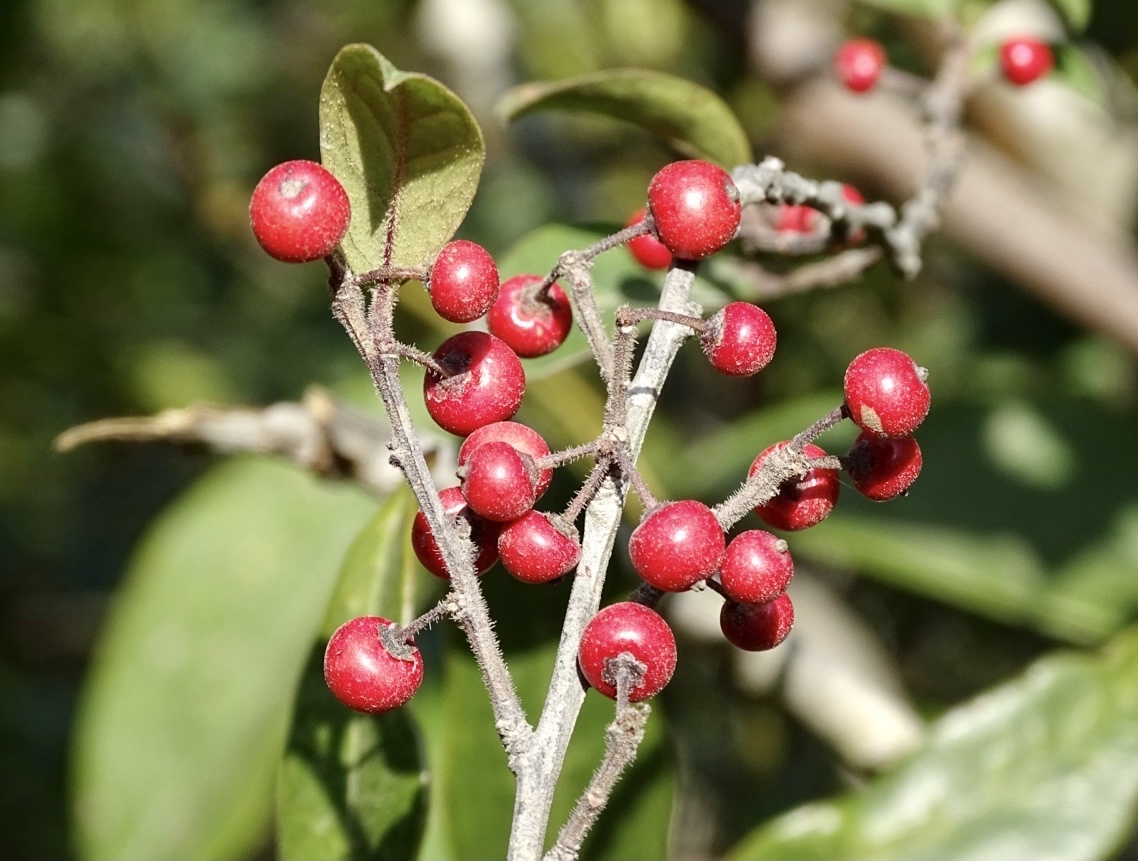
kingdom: Plantae
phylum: Tracheophyta
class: Magnoliopsida
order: Aquifoliales
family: Aquifoliaceae
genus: Ilex
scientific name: Ilex pubescens
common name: Pubescent holly
